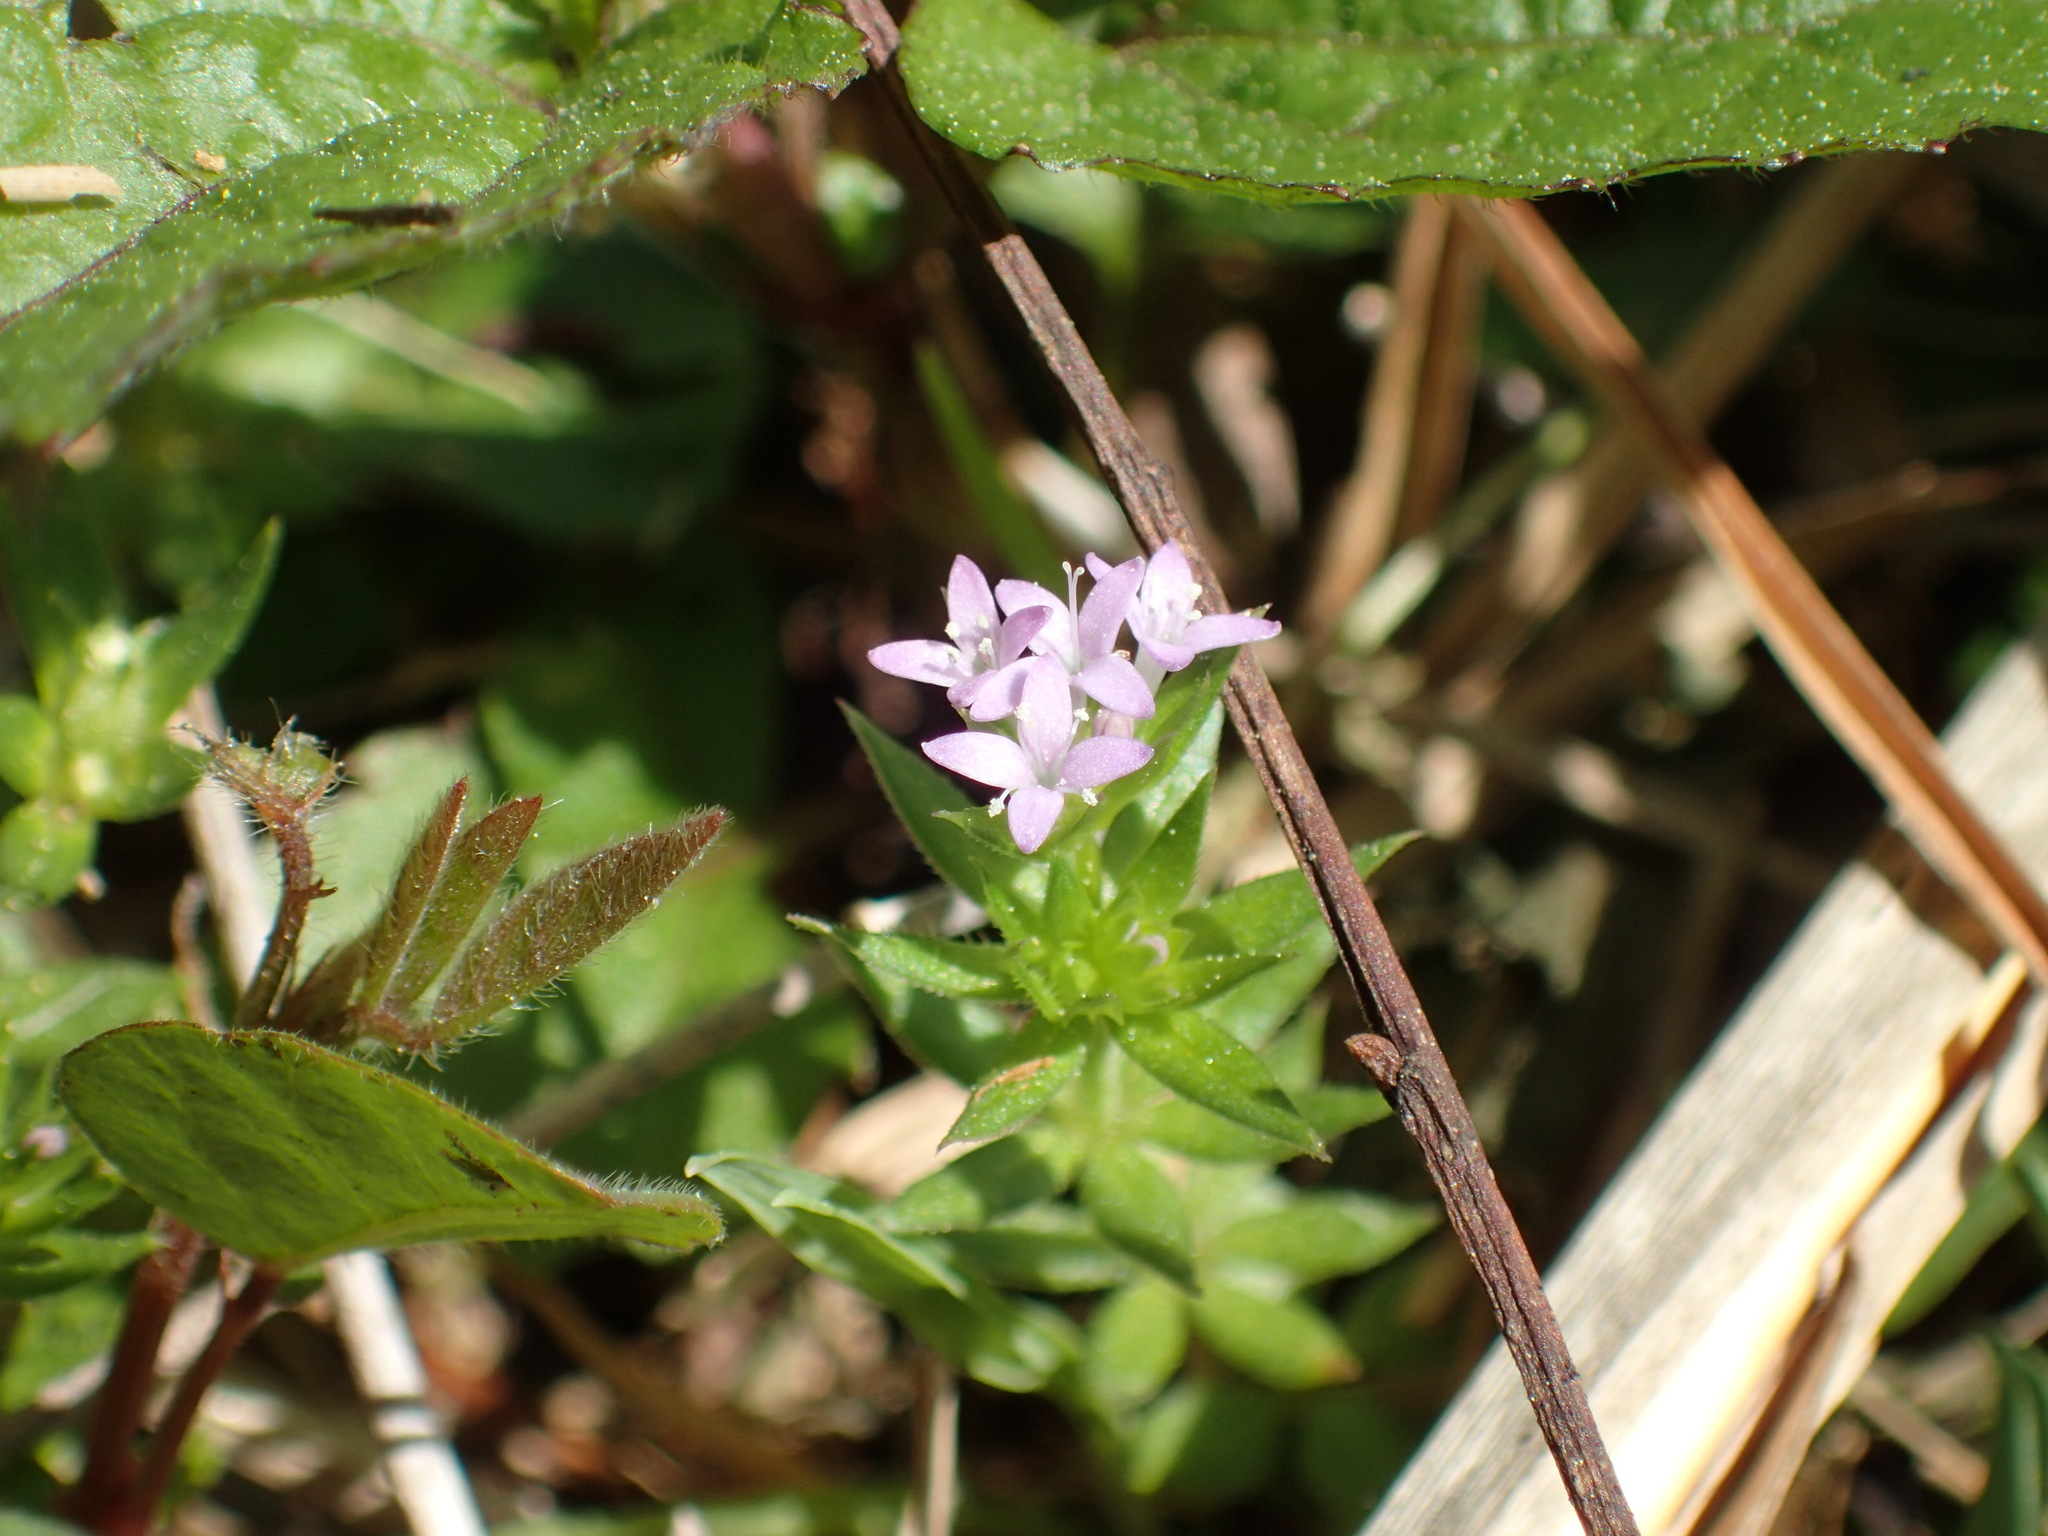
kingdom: Plantae
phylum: Tracheophyta
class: Magnoliopsida
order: Gentianales
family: Rubiaceae
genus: Sherardia
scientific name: Sherardia arvensis
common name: Field madder
